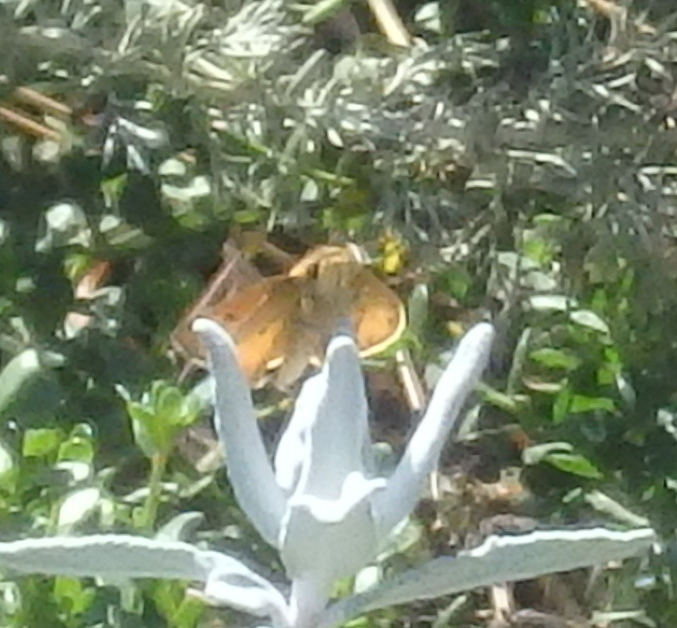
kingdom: Animalia
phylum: Arthropoda
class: Insecta
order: Lepidoptera
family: Hesperiidae
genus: Hylephila
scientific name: Hylephila phyleus
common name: Fiery skipper
